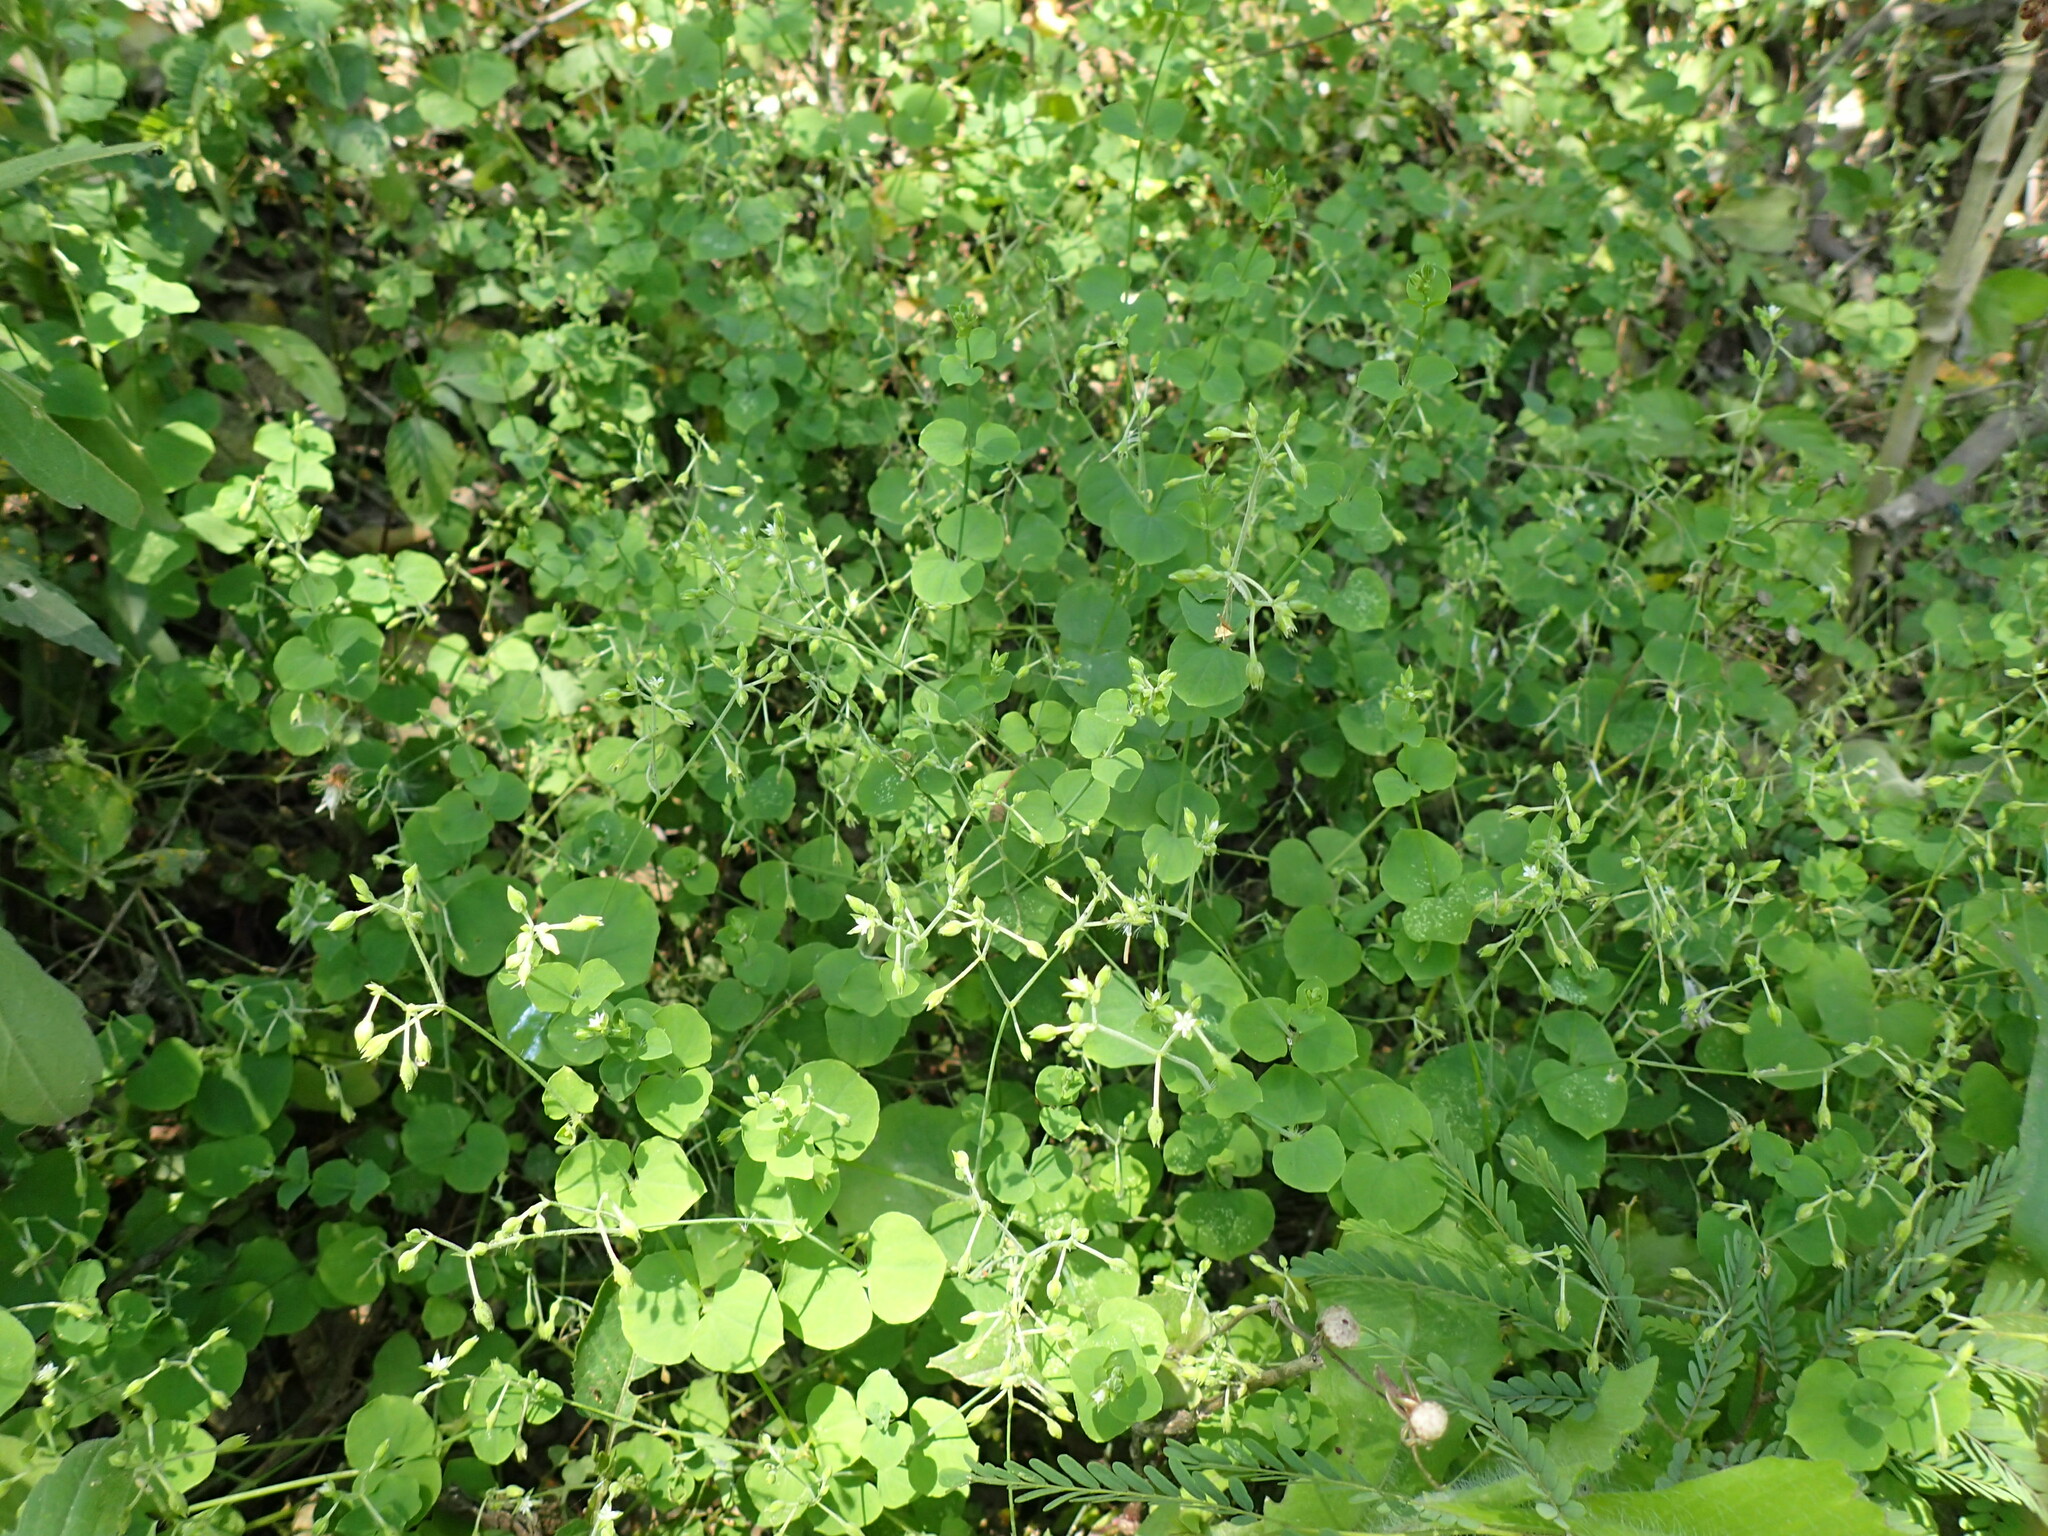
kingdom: Plantae
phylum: Tracheophyta
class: Magnoliopsida
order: Caryophyllales
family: Caryophyllaceae
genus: Drymaria
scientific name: Drymaria cordata
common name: Whitesnow
